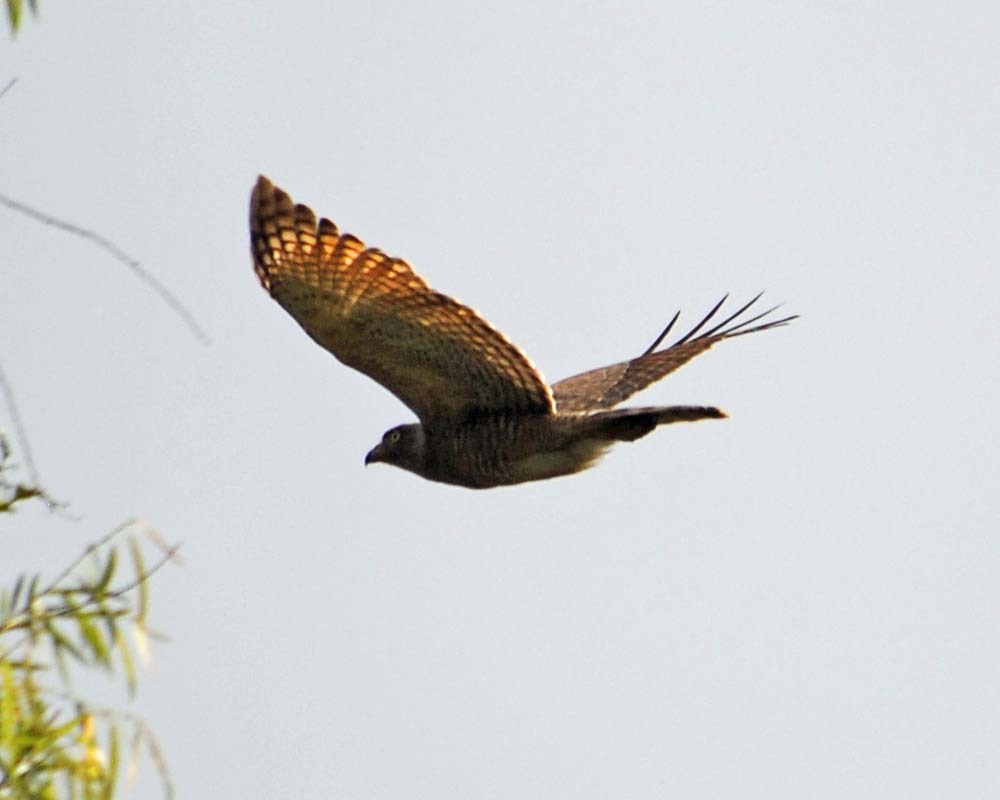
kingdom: Animalia
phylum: Chordata
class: Aves
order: Accipitriformes
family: Accipitridae
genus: Rupornis
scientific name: Rupornis magnirostris
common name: Roadside hawk
